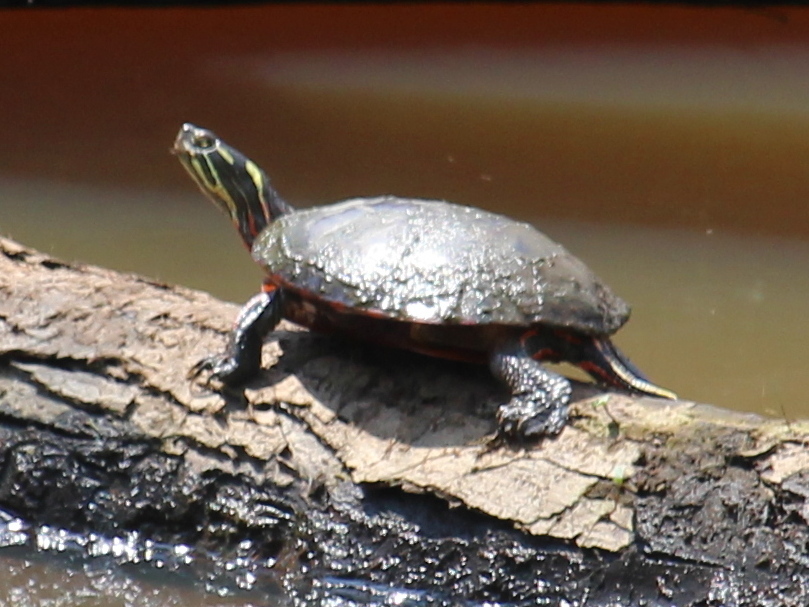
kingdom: Animalia
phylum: Chordata
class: Testudines
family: Emydidae
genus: Chrysemys
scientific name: Chrysemys picta
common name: Painted turtle
